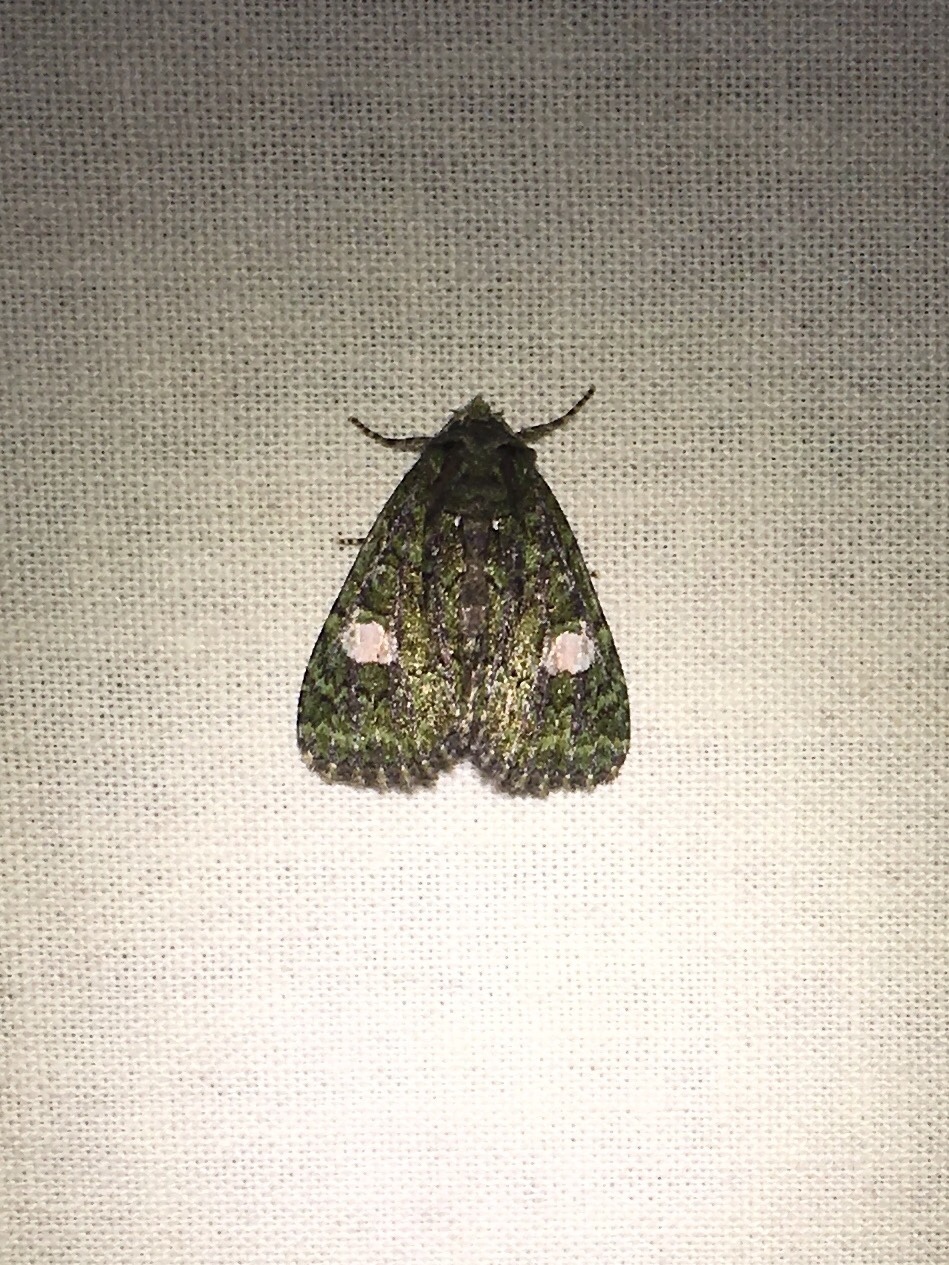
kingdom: Animalia
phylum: Arthropoda
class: Insecta
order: Lepidoptera
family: Noctuidae
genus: Phosphila
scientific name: Phosphila miselioides
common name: Spotted phosphila moth
